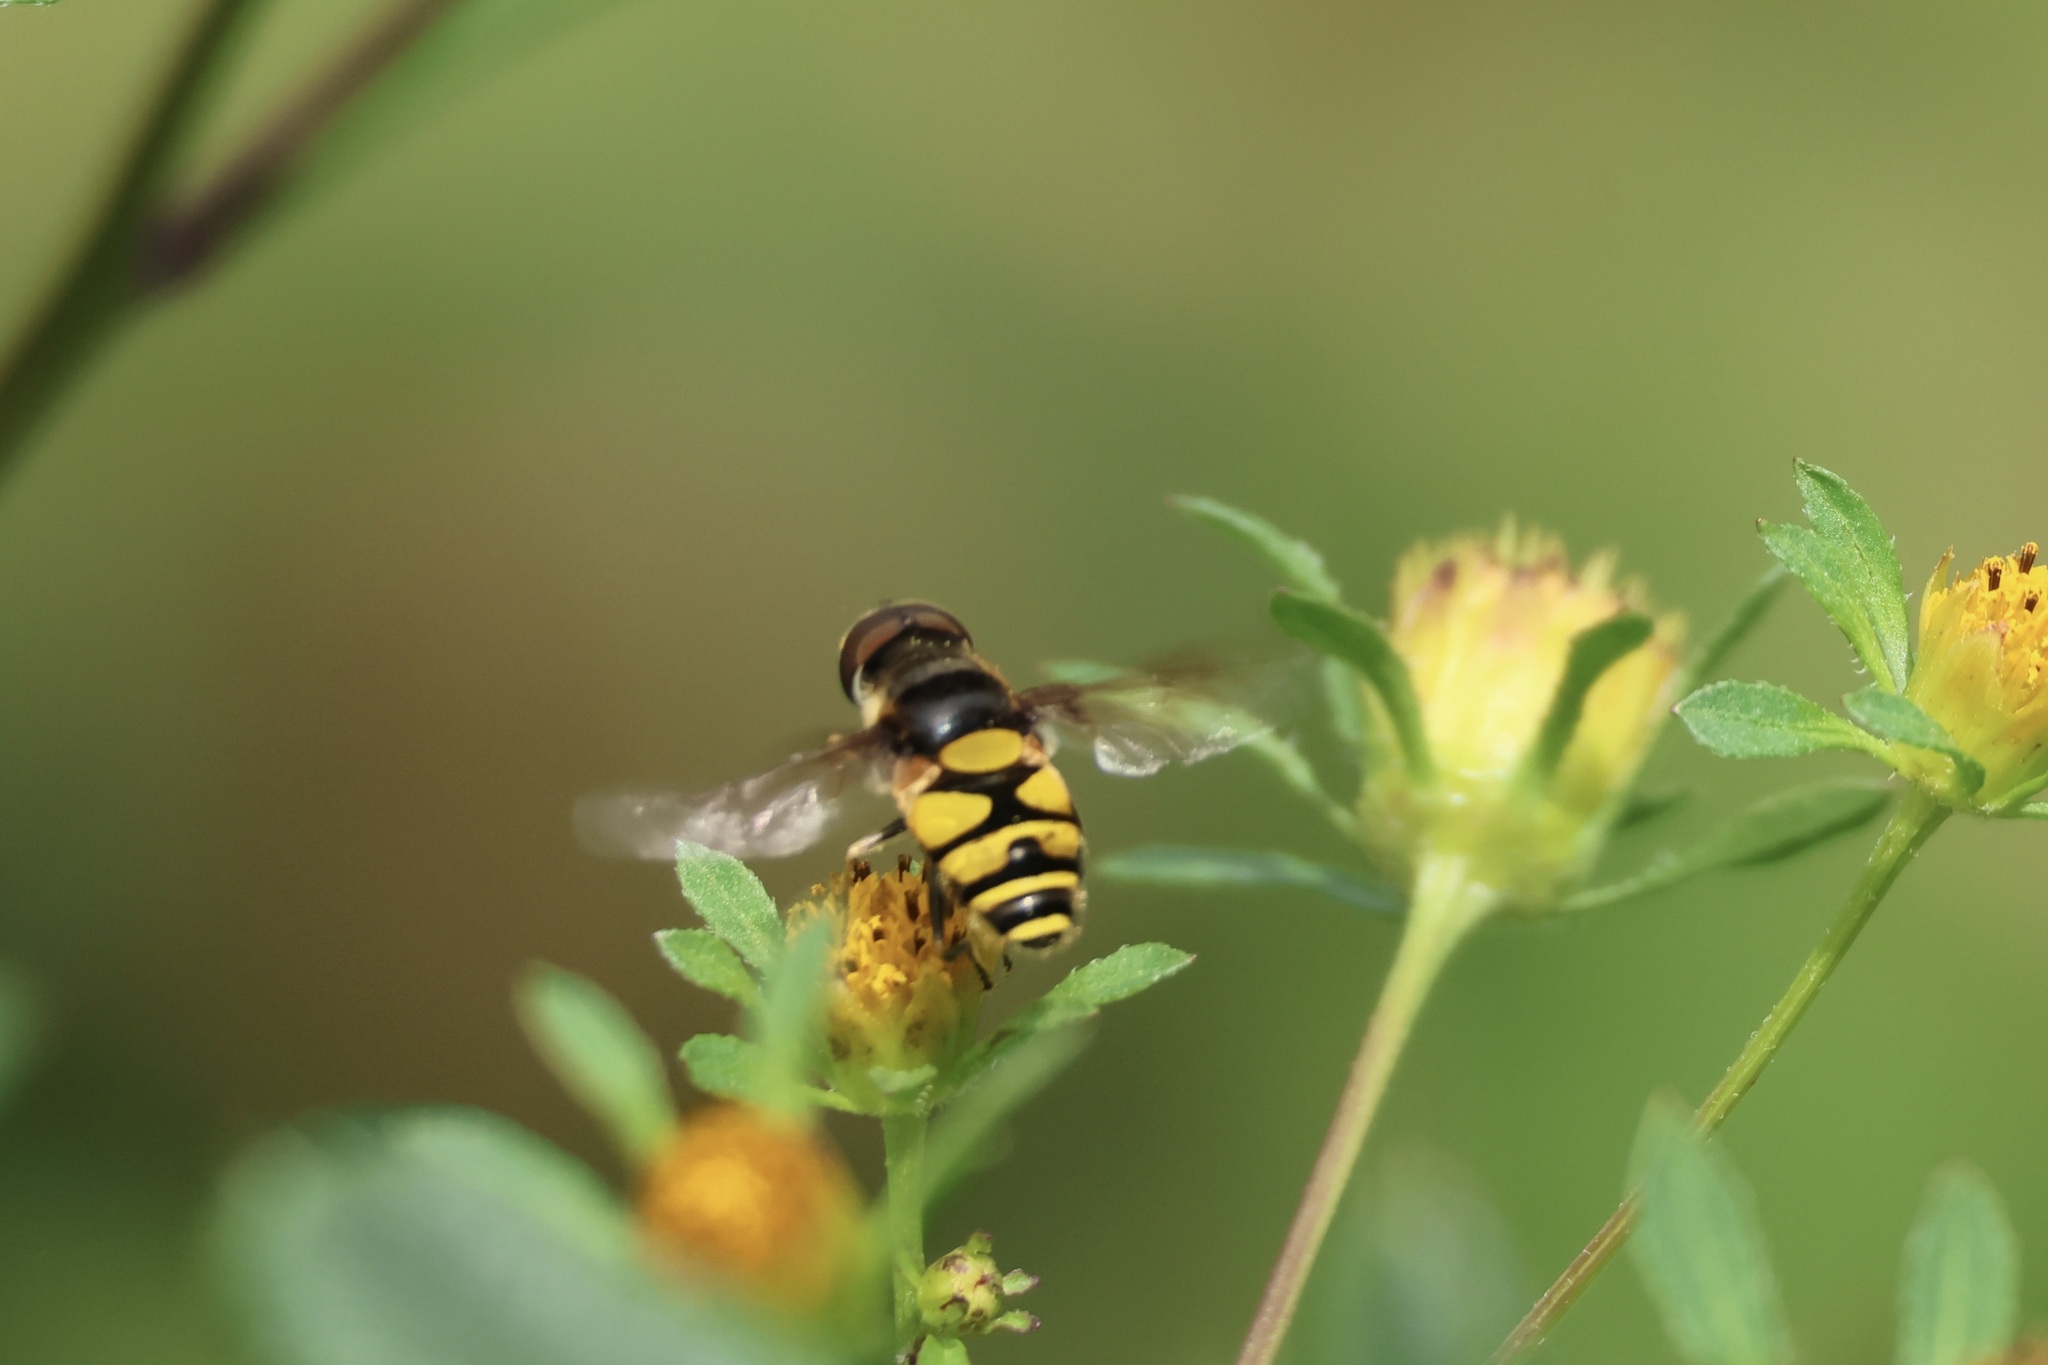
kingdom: Animalia
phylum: Arthropoda
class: Insecta
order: Diptera
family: Syrphidae
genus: Eristalis
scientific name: Eristalis transversa
